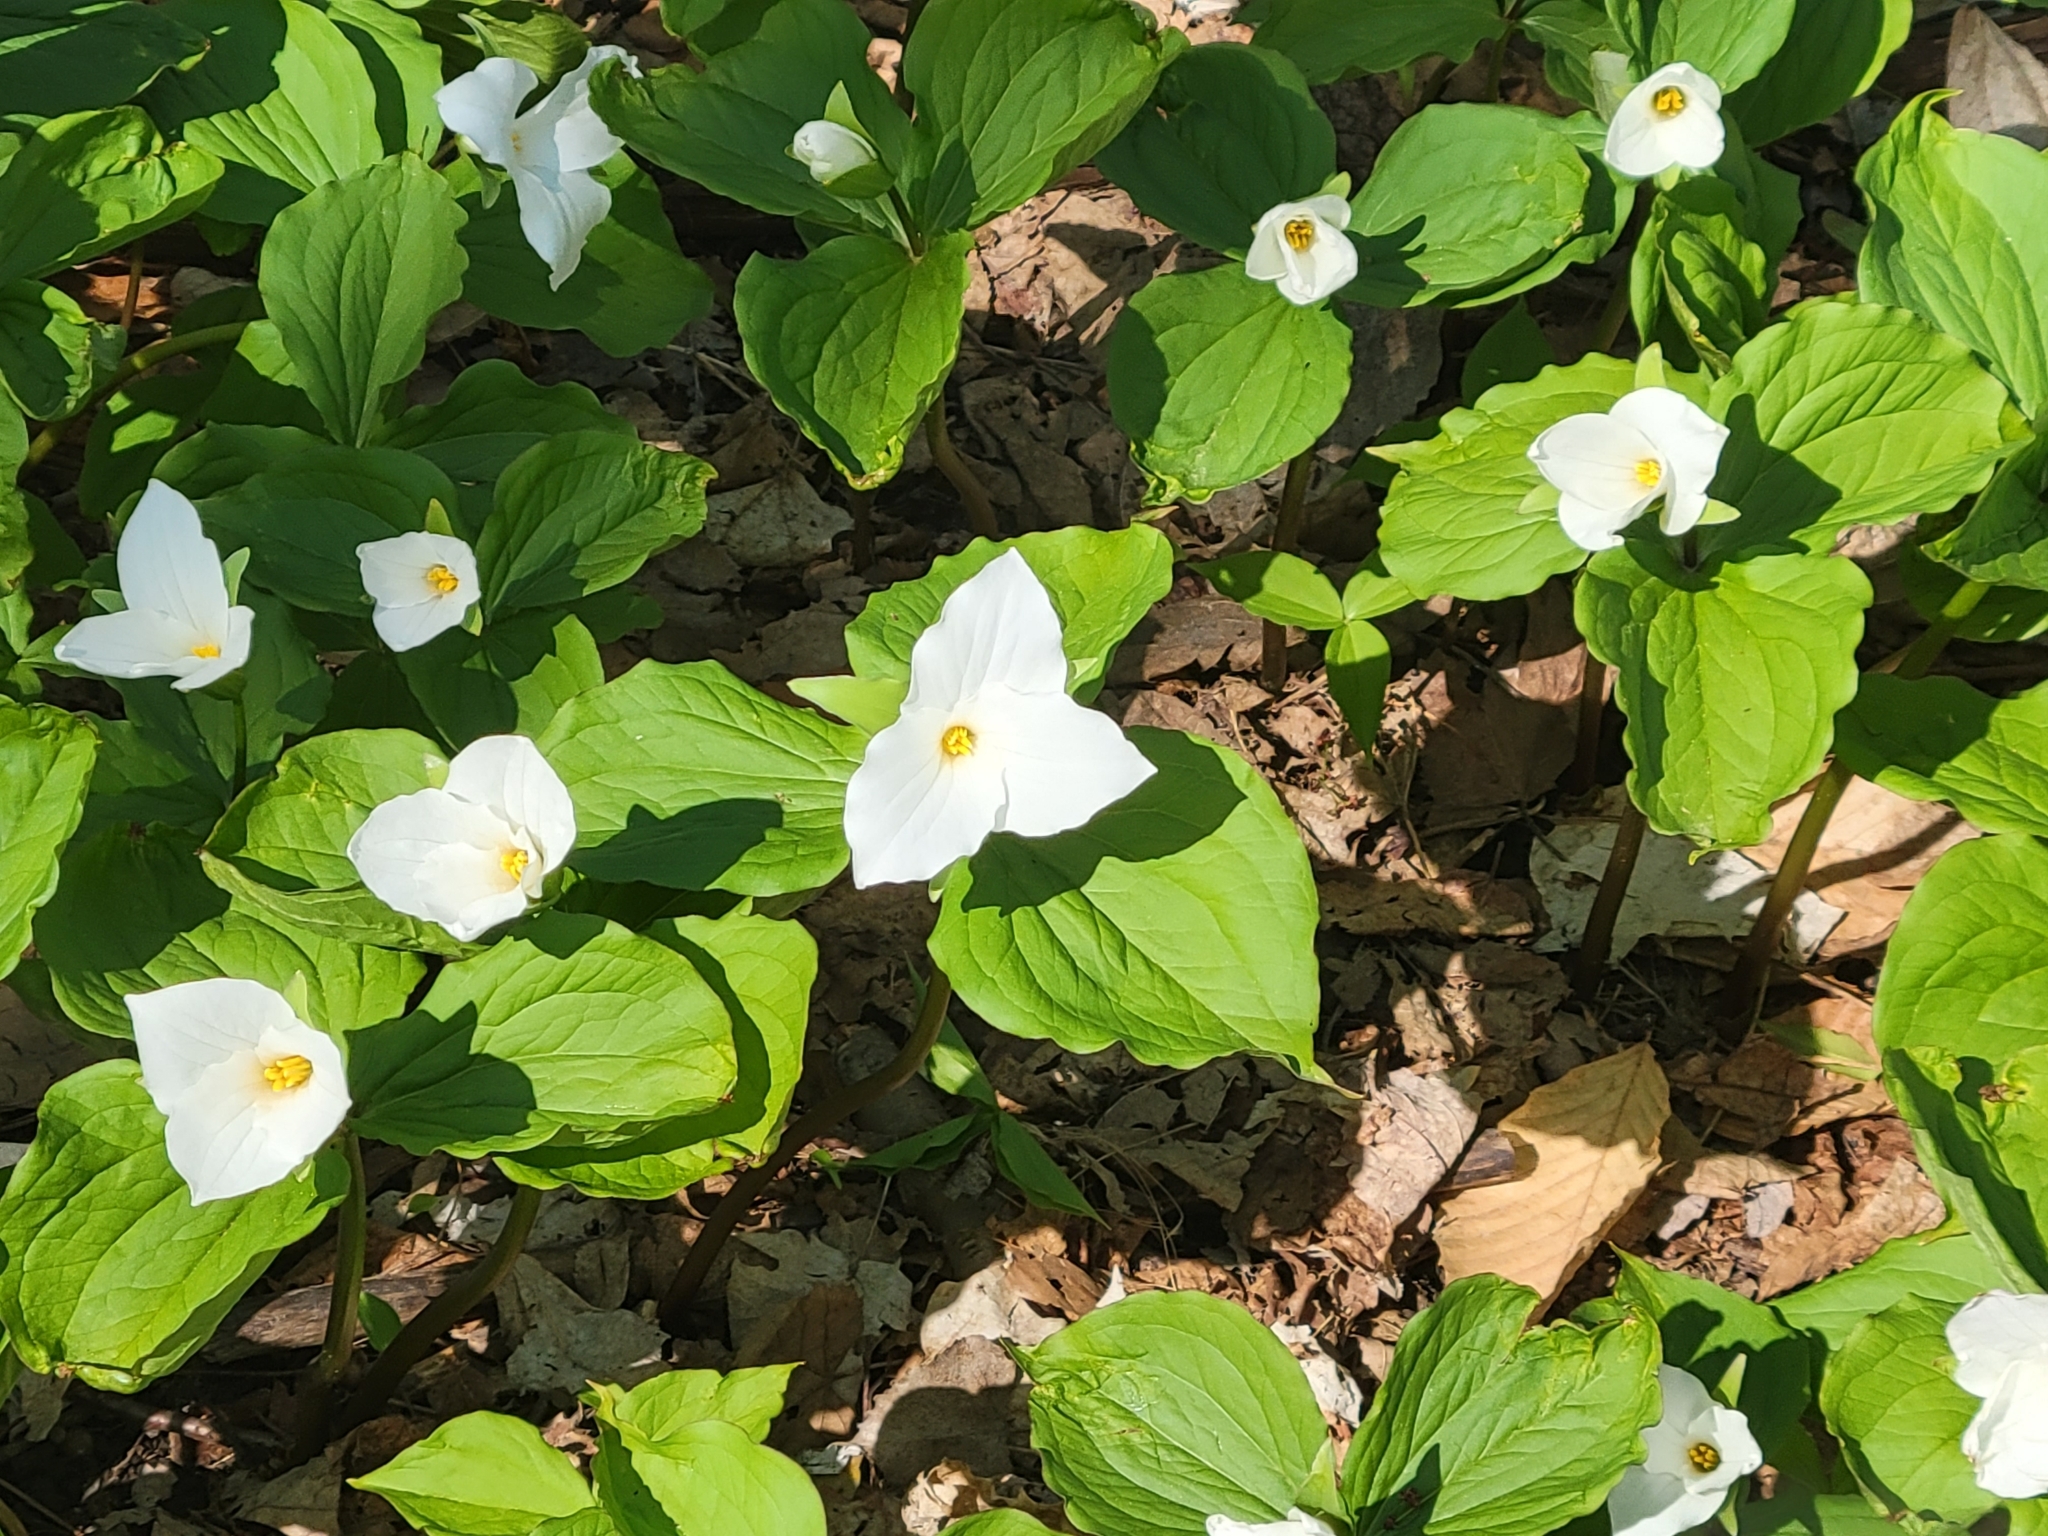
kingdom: Plantae
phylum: Tracheophyta
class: Liliopsida
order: Liliales
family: Melanthiaceae
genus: Trillium
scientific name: Trillium grandiflorum
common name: Great white trillium
